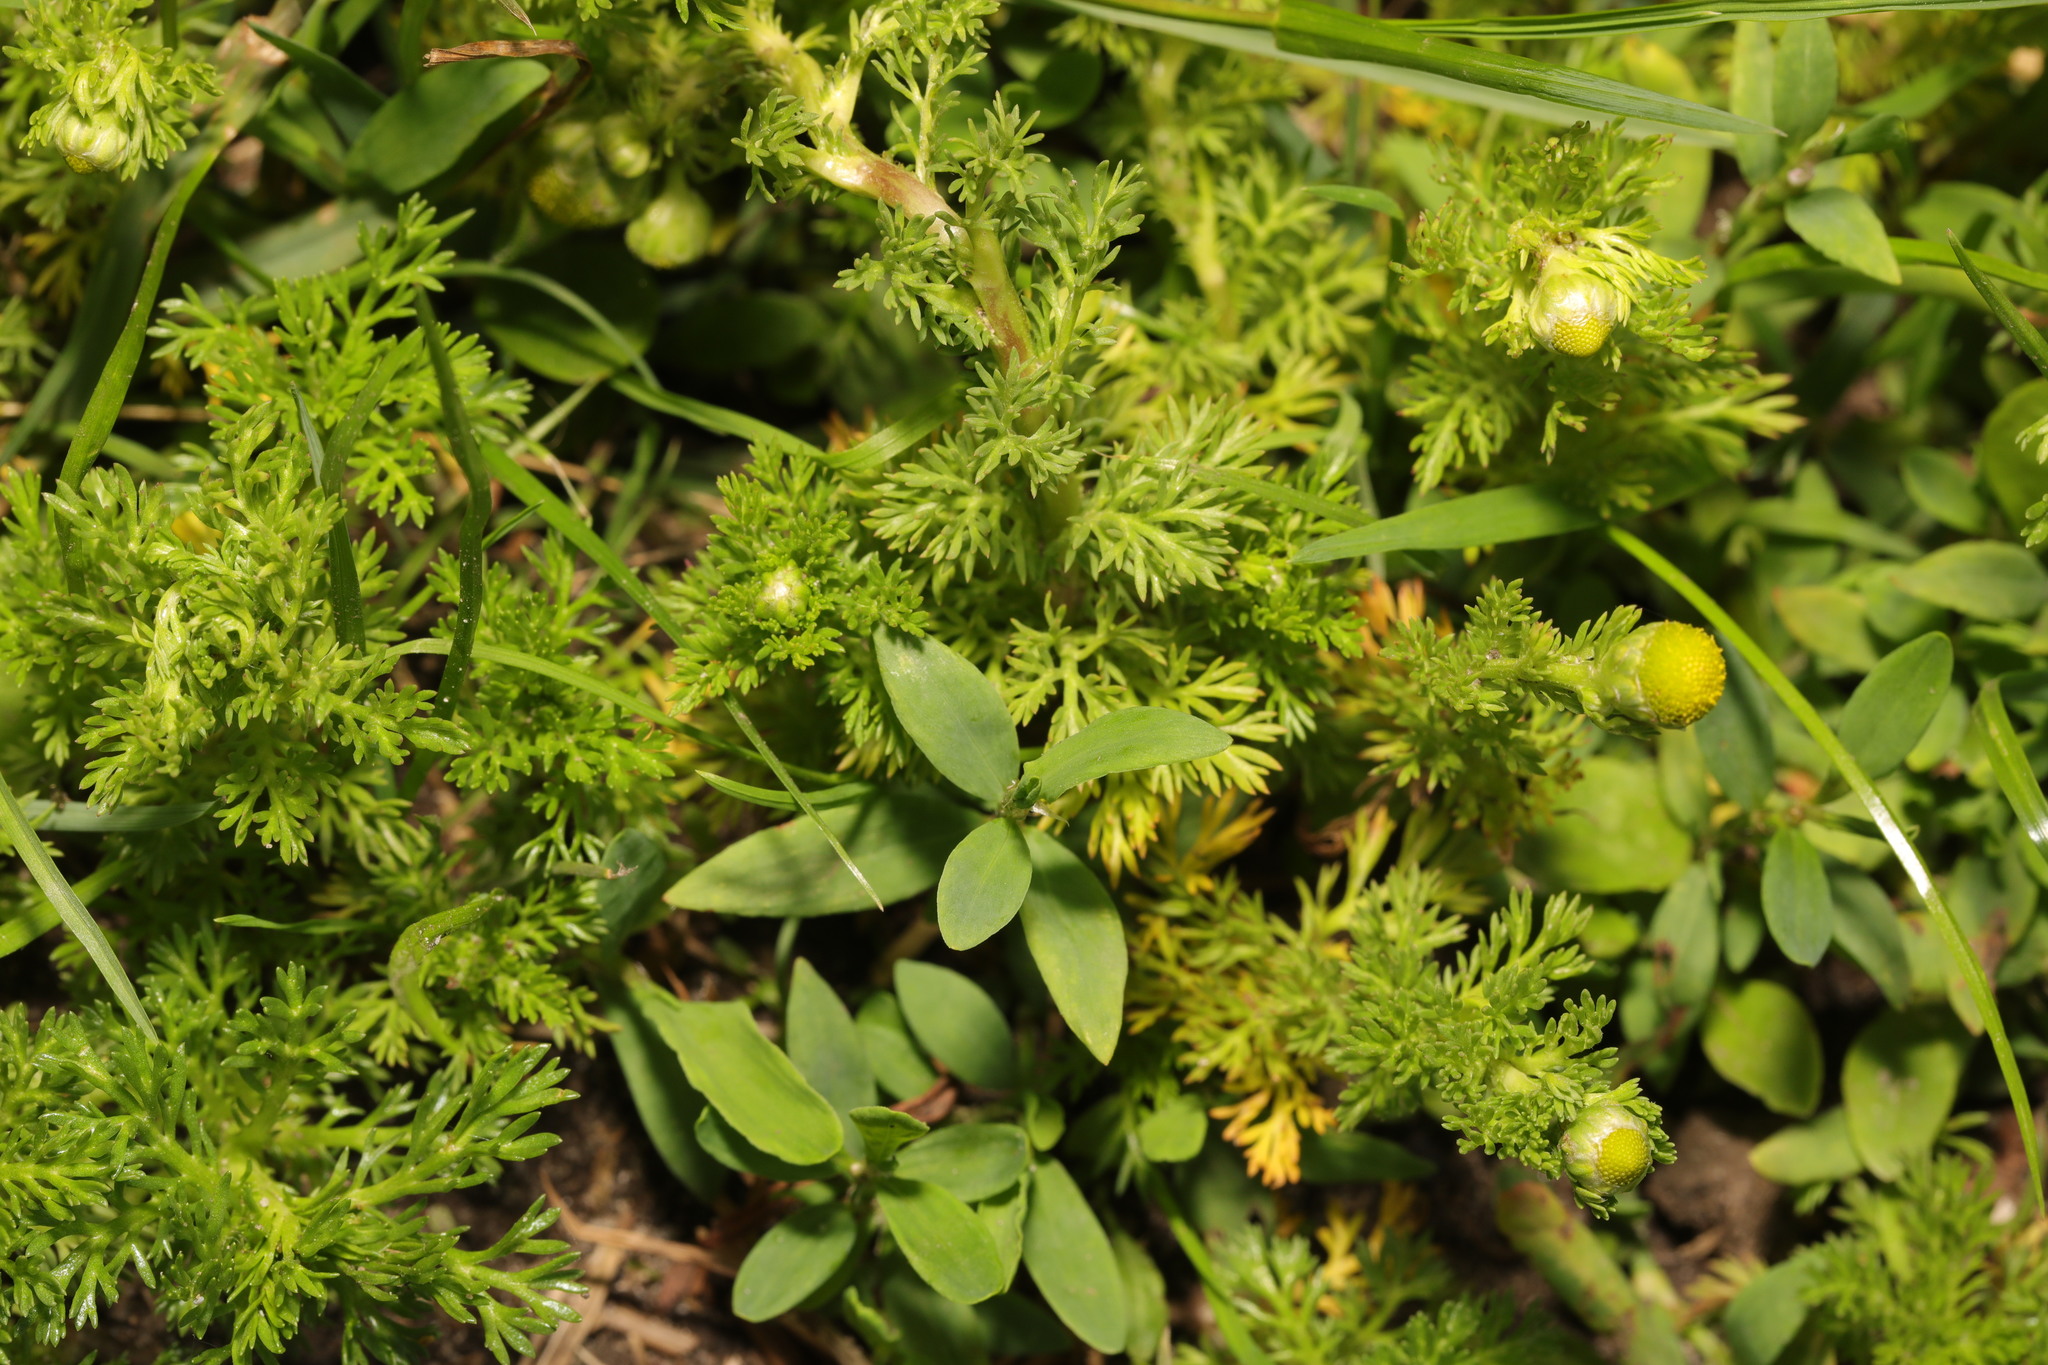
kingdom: Plantae
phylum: Tracheophyta
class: Magnoliopsida
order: Asterales
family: Asteraceae
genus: Matricaria
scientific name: Matricaria discoidea
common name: Disc mayweed
